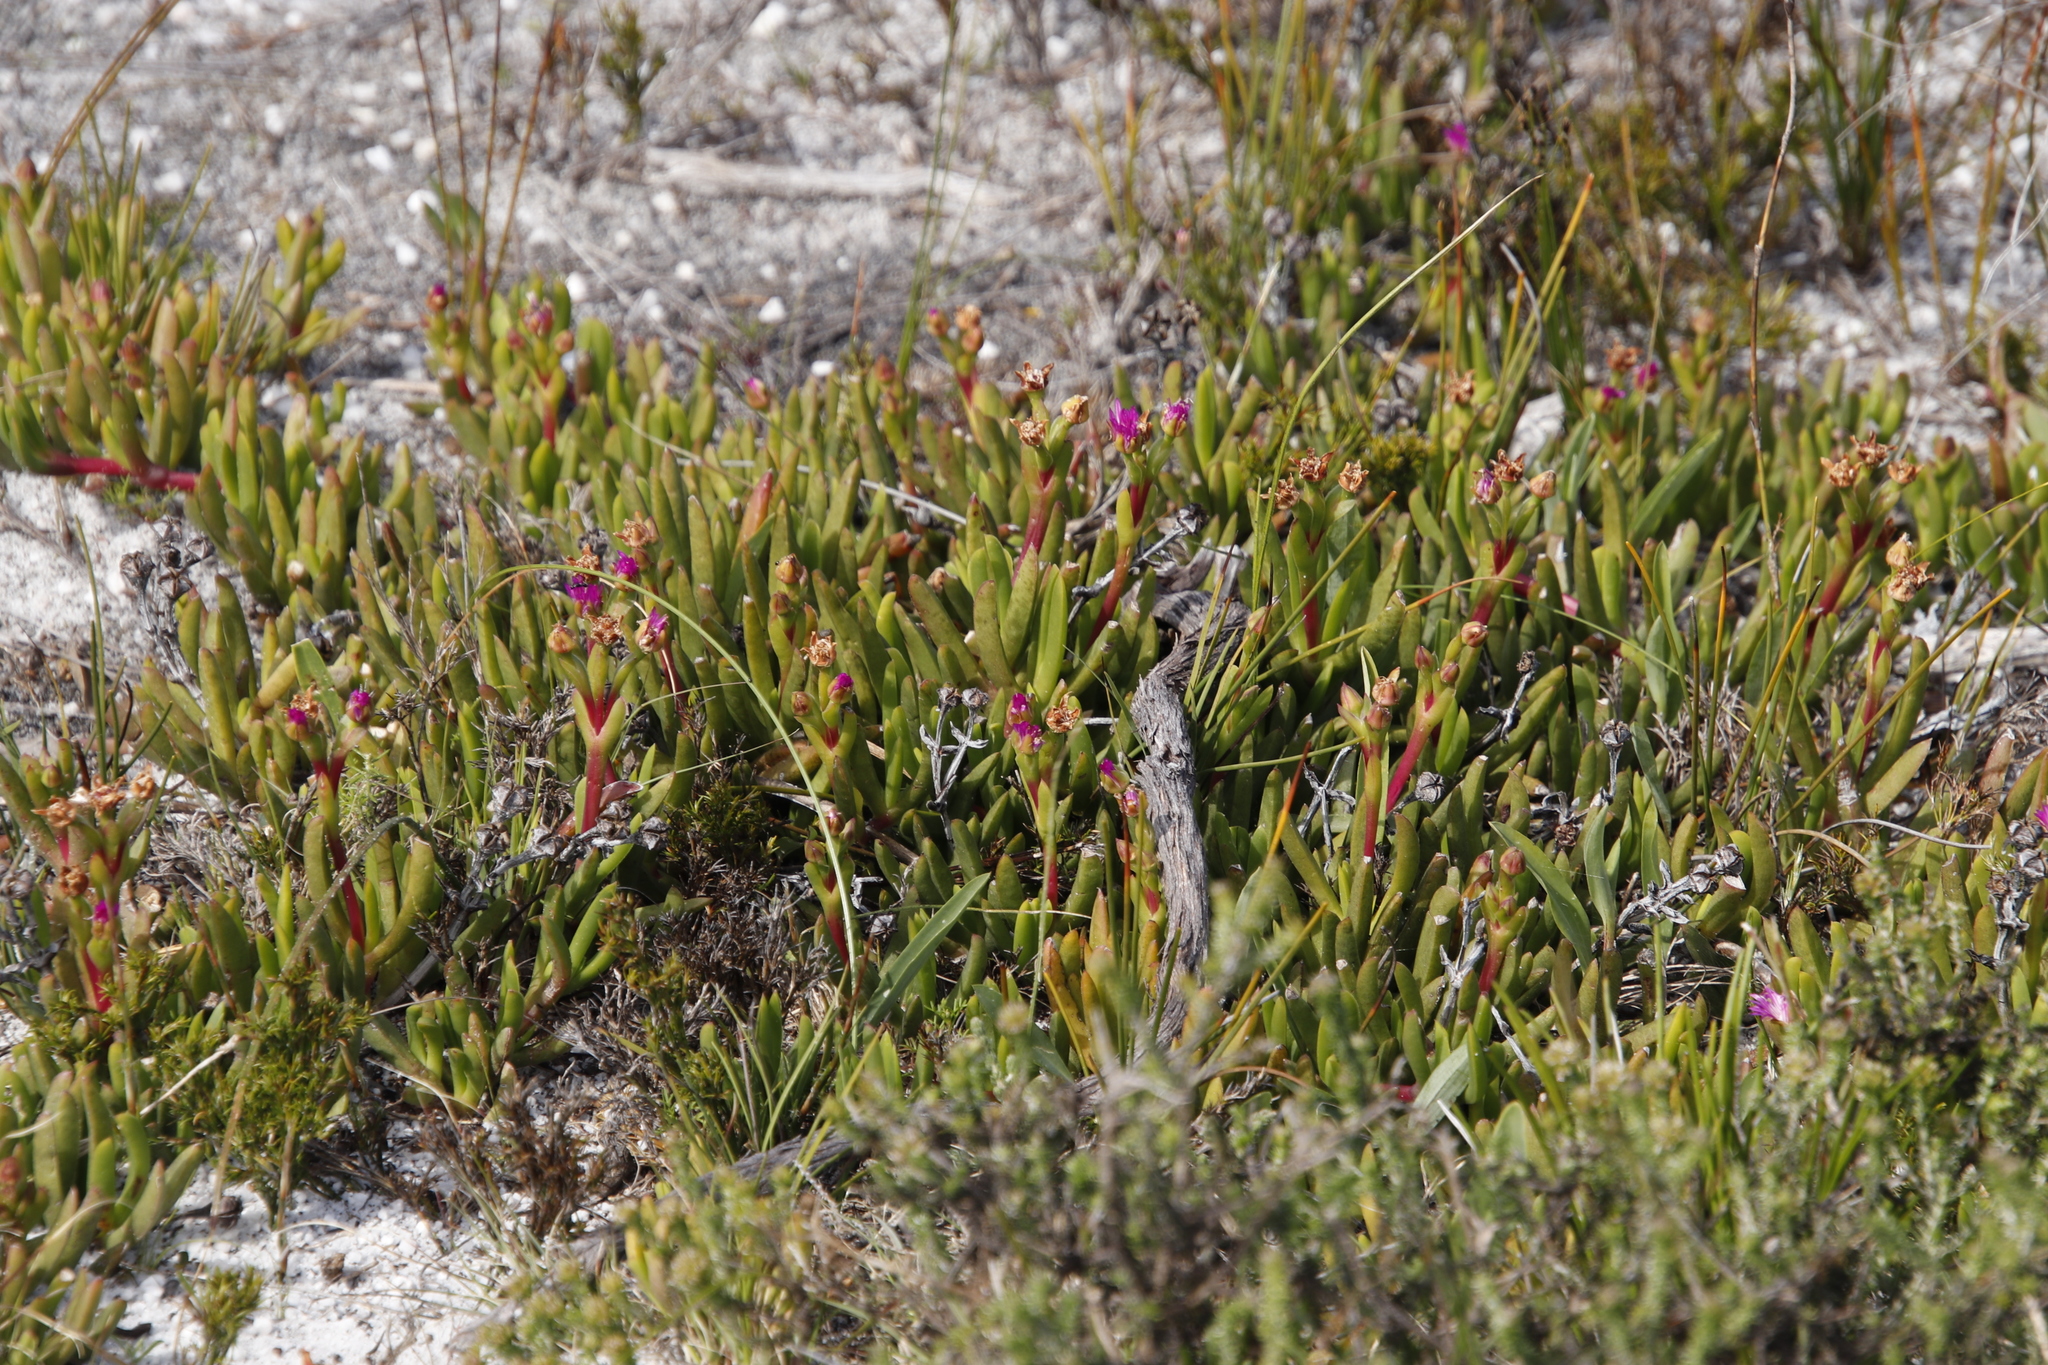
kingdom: Plantae
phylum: Tracheophyta
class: Magnoliopsida
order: Caryophyllales
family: Aizoaceae
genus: Ruschia
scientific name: Ruschia sarmentosa
